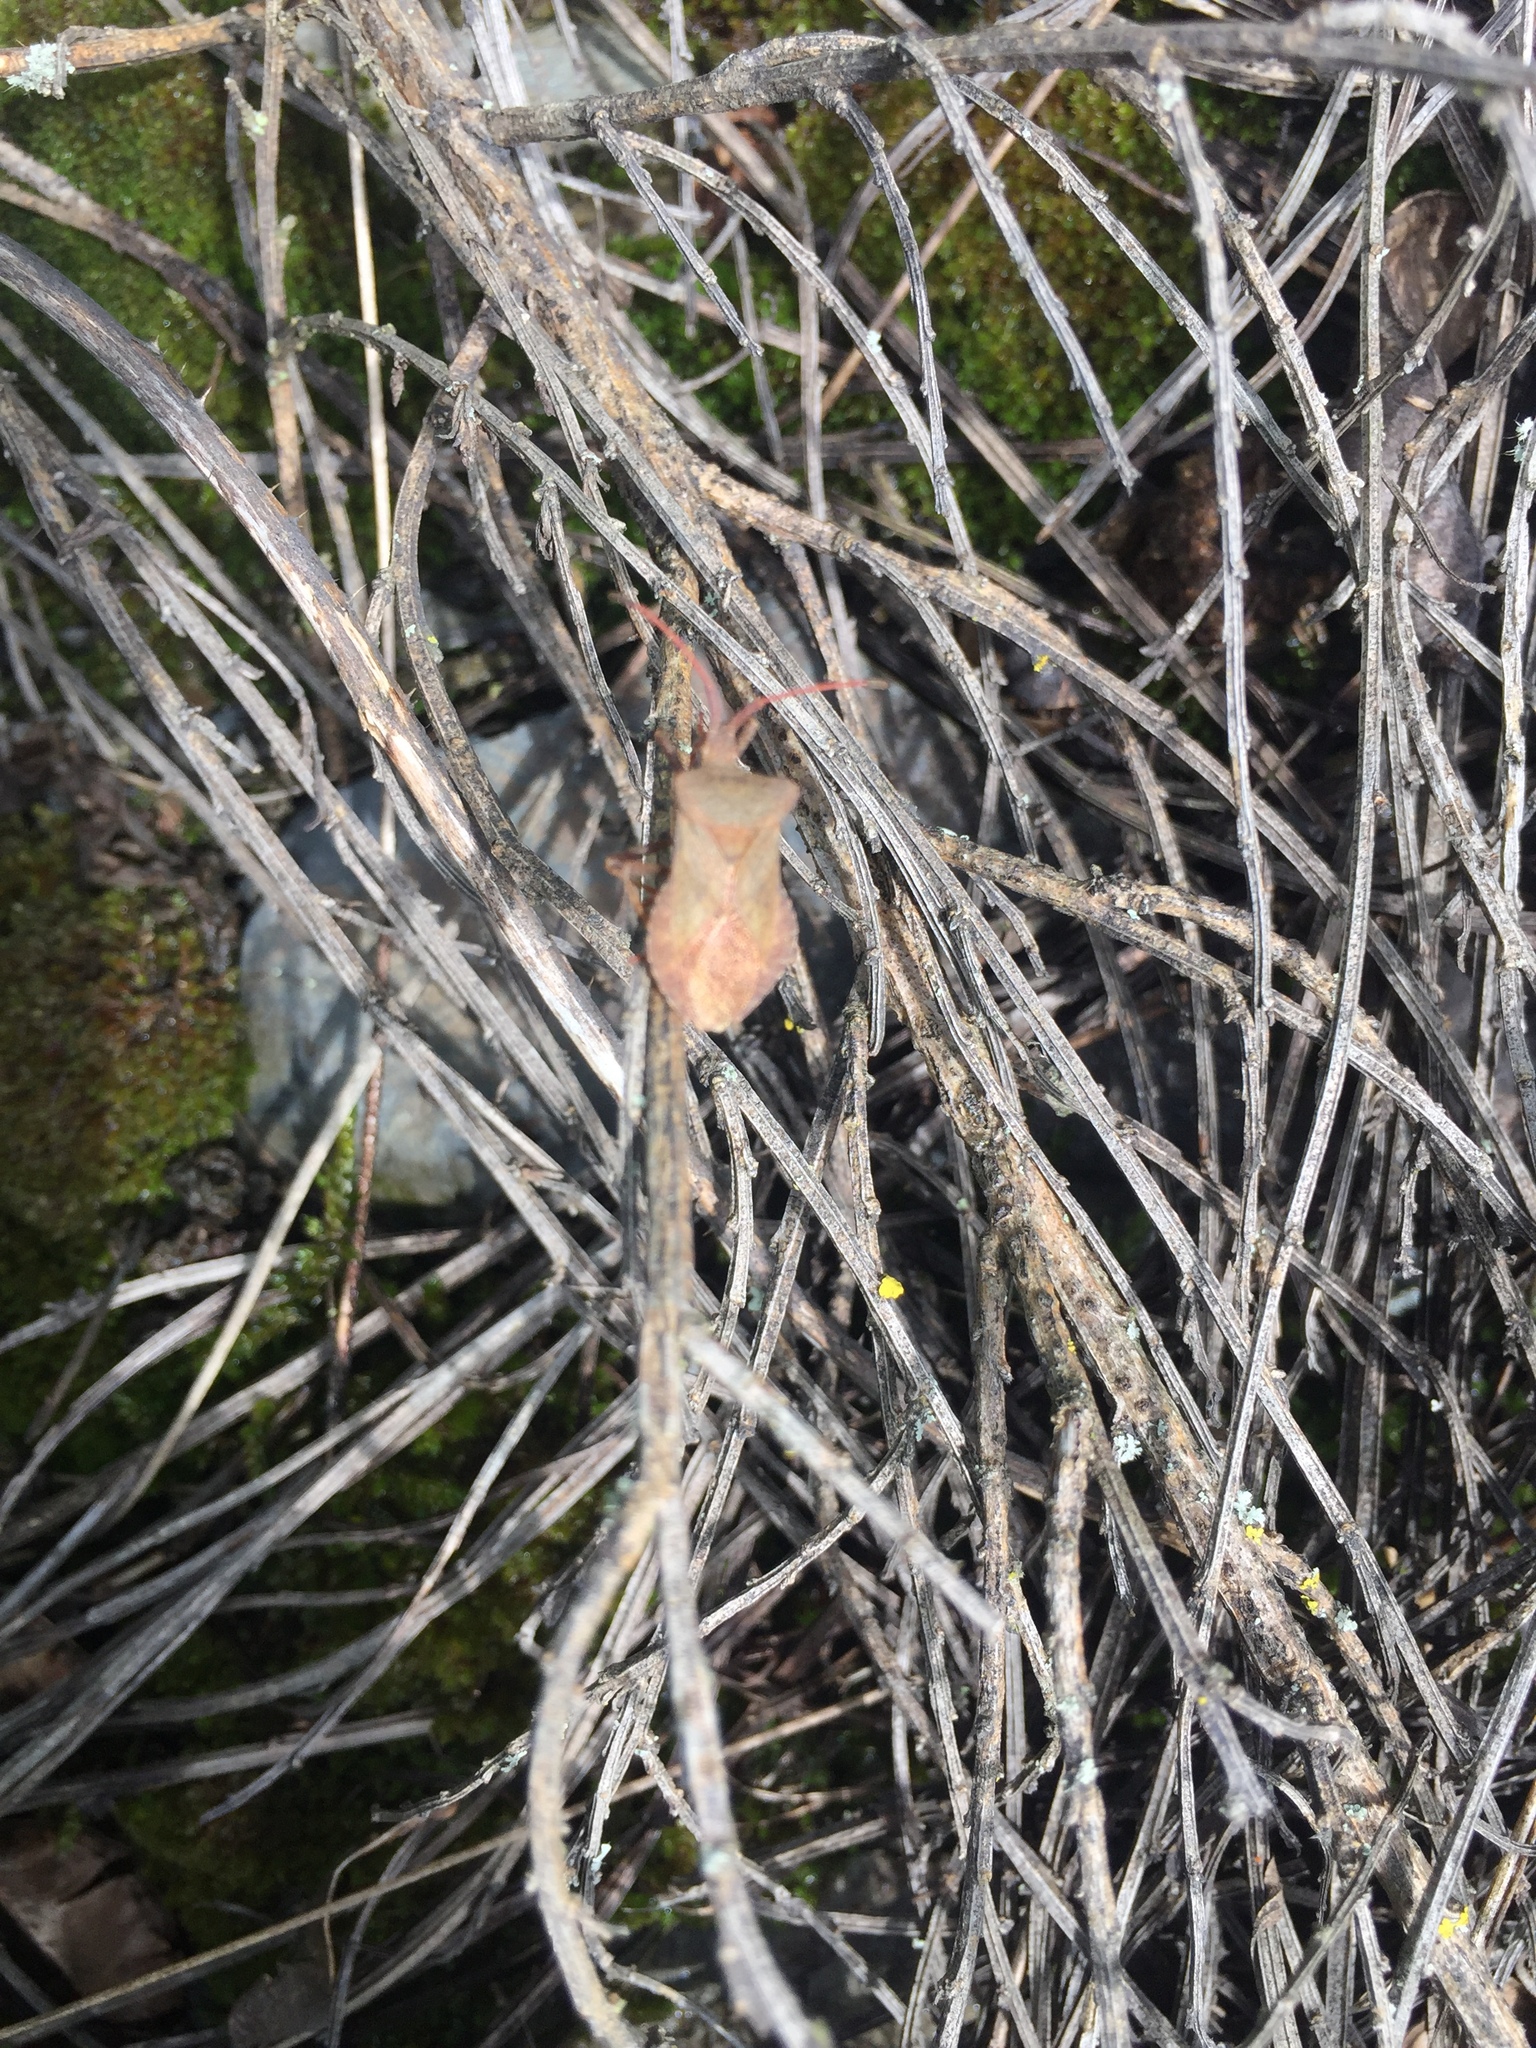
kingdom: Animalia
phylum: Arthropoda
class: Insecta
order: Hemiptera
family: Coreidae
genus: Coreus
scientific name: Coreus marginatus
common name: Dock bug
